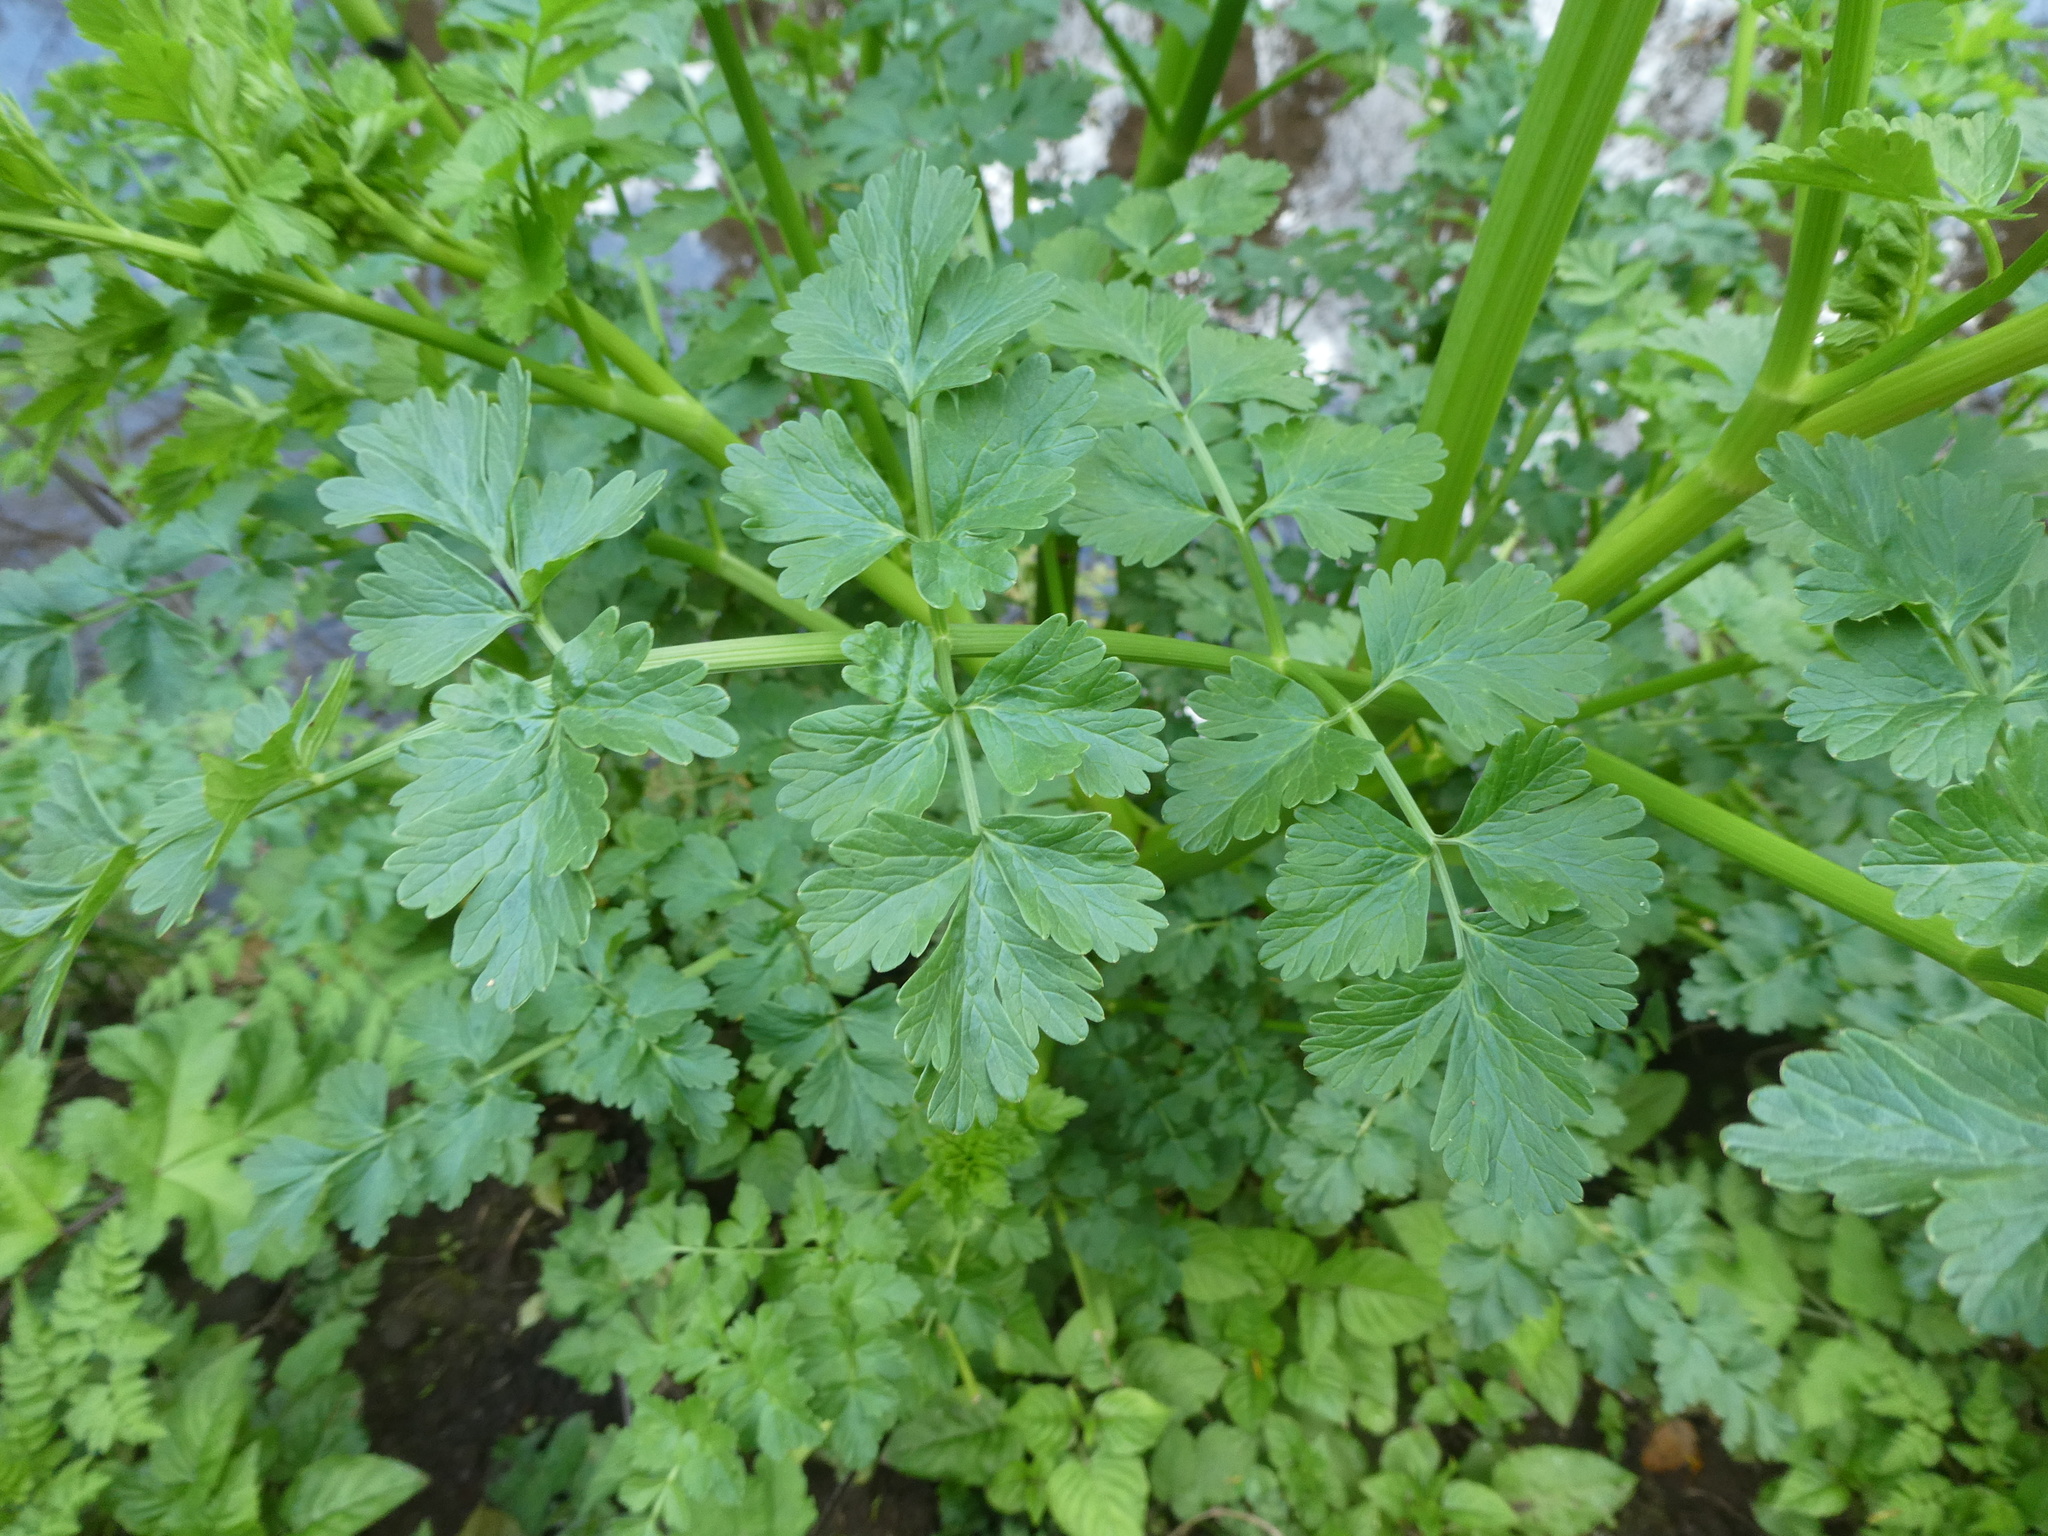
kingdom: Plantae
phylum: Tracheophyta
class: Magnoliopsida
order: Apiales
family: Apiaceae
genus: Oenanthe
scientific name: Oenanthe crocata
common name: Hemlock water-dropwort
